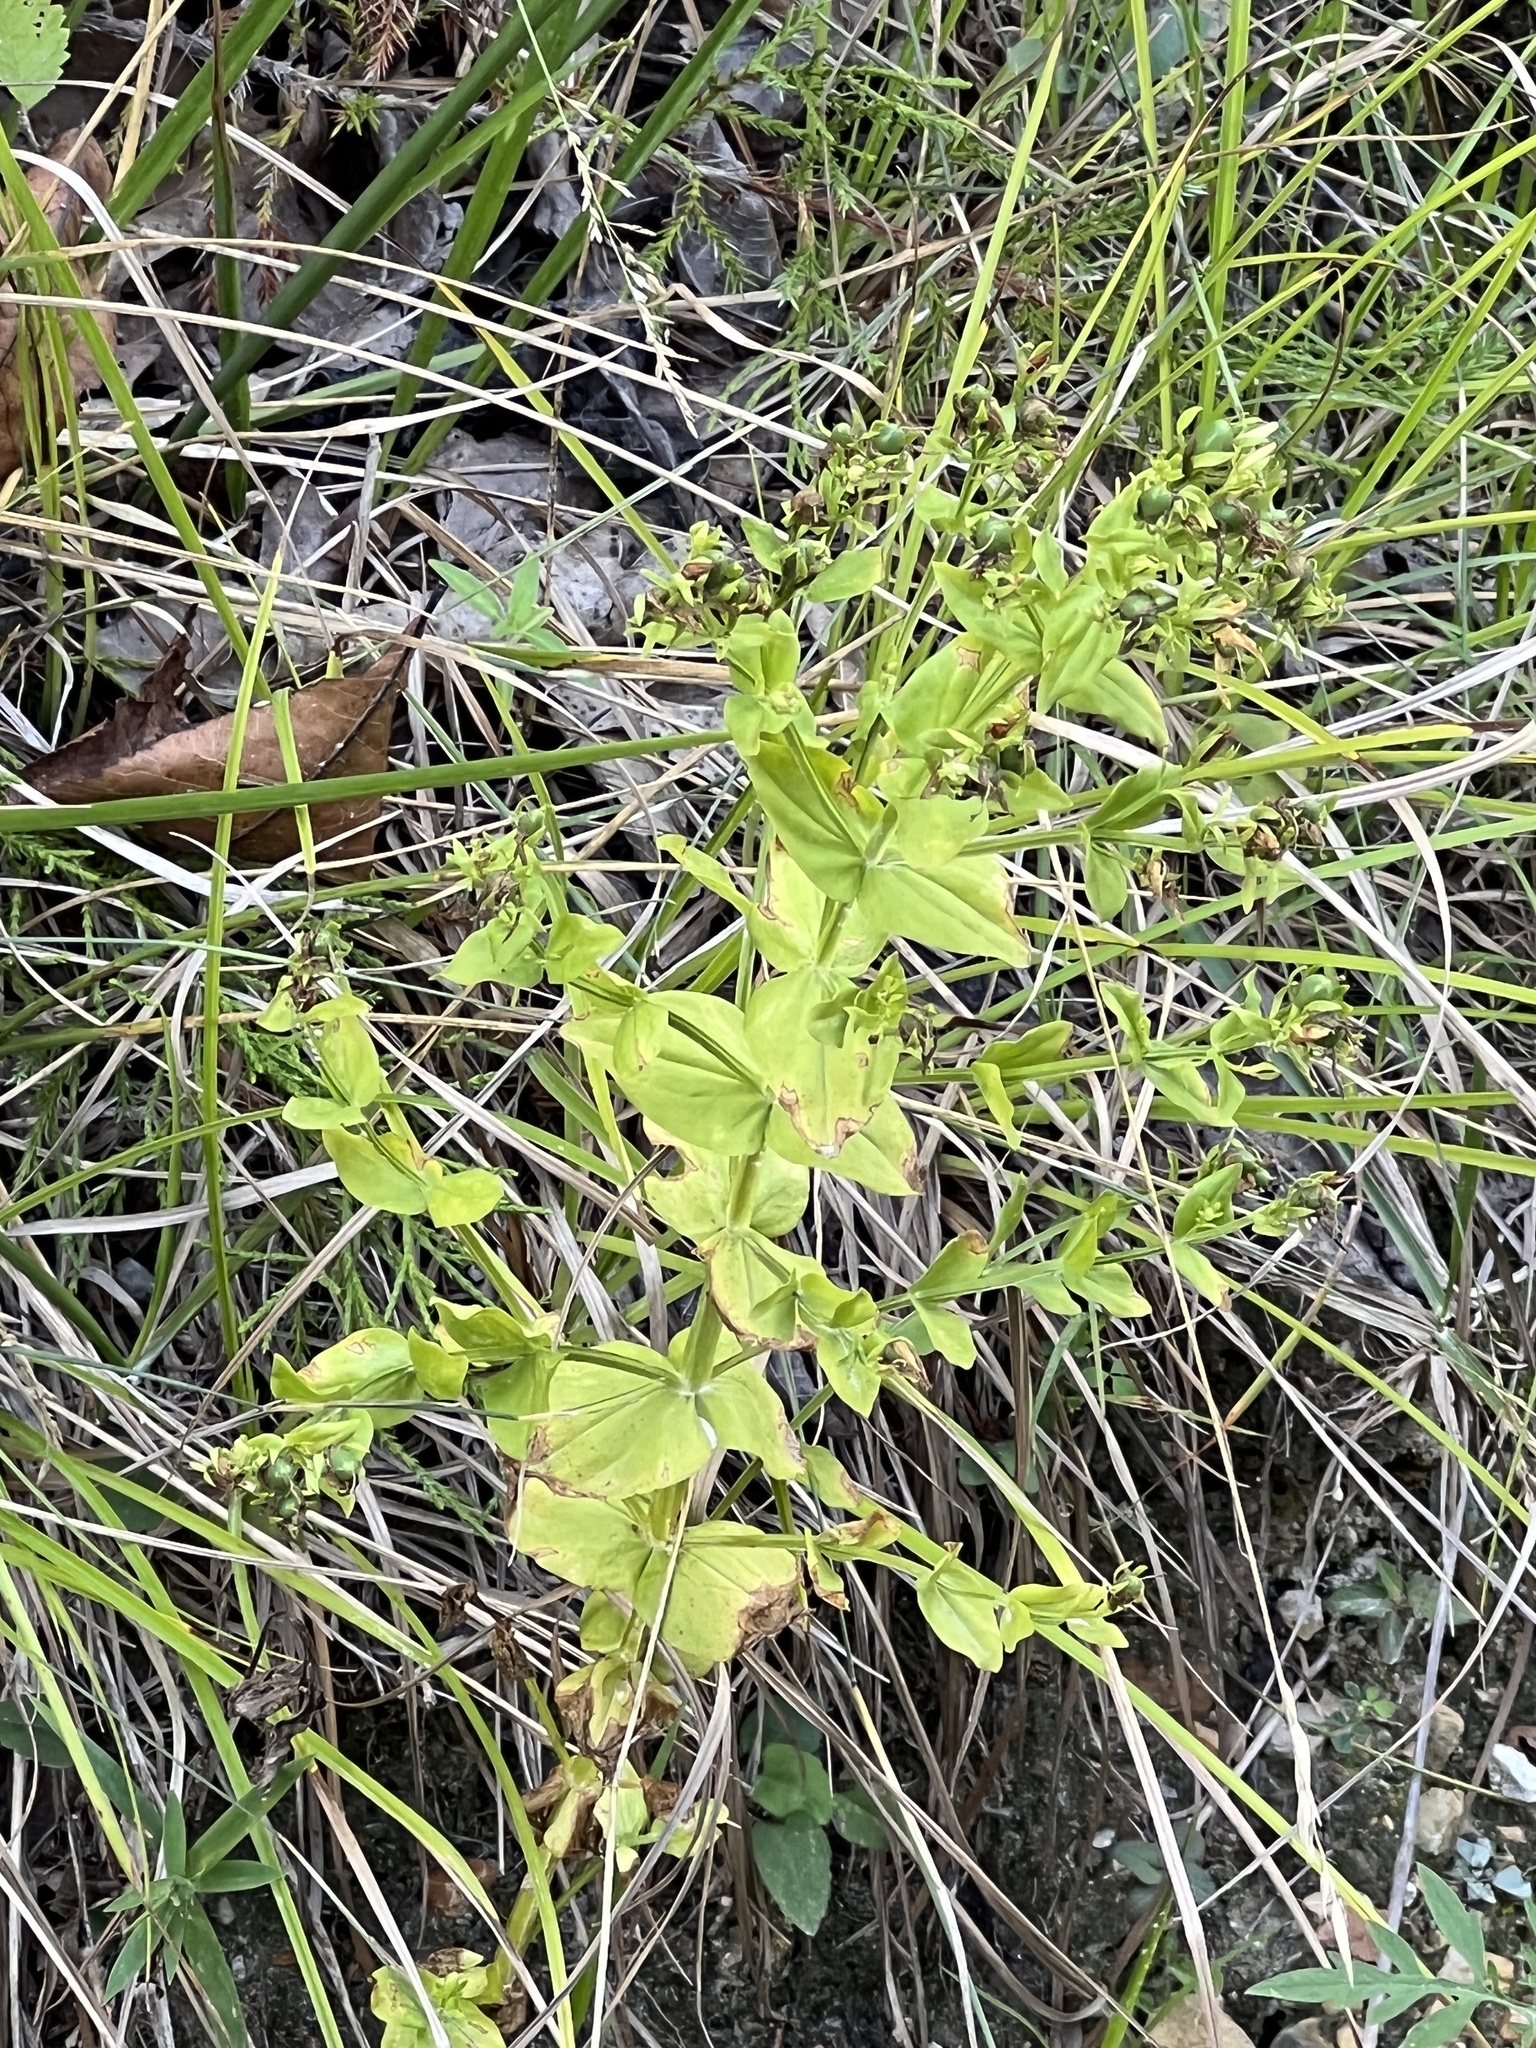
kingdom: Plantae
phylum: Tracheophyta
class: Magnoliopsida
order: Gentianales
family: Gentianaceae
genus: Sabatia
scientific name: Sabatia angularis
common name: Rose-pink
